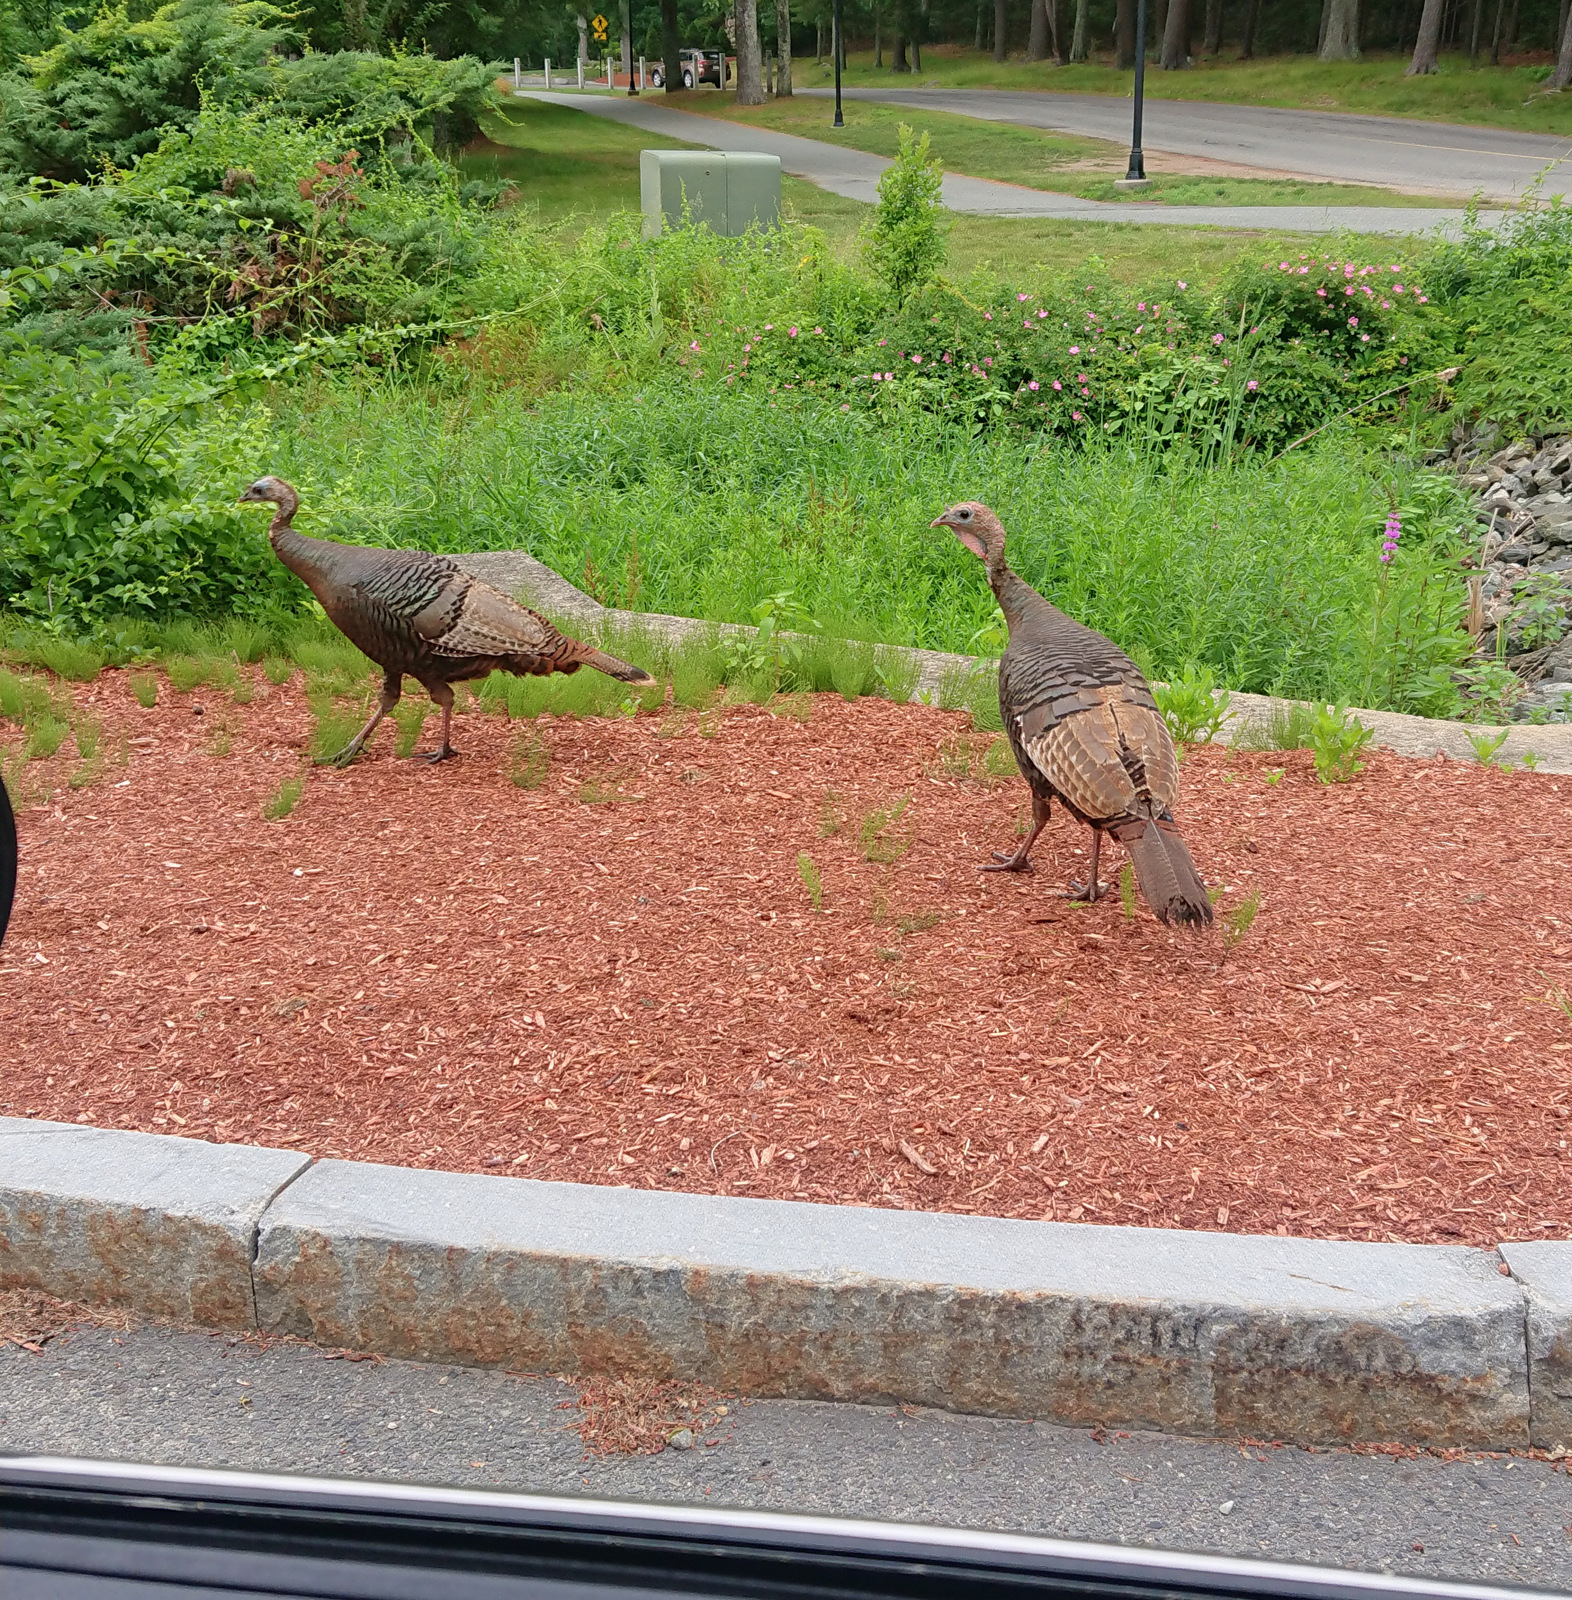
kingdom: Animalia
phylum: Chordata
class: Aves
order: Galliformes
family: Phasianidae
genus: Meleagris
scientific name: Meleagris gallopavo
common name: Wild turkey
